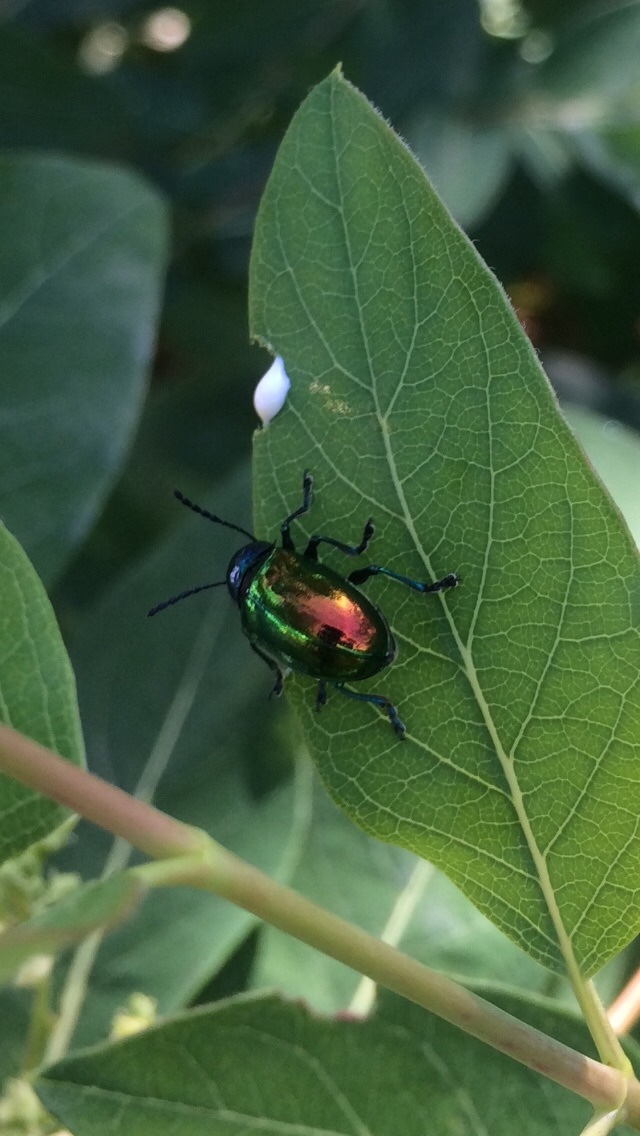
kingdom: Animalia
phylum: Arthropoda
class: Insecta
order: Coleoptera
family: Chrysomelidae
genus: Chrysochus
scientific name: Chrysochus auratus
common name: Dogbane leaf beetle
